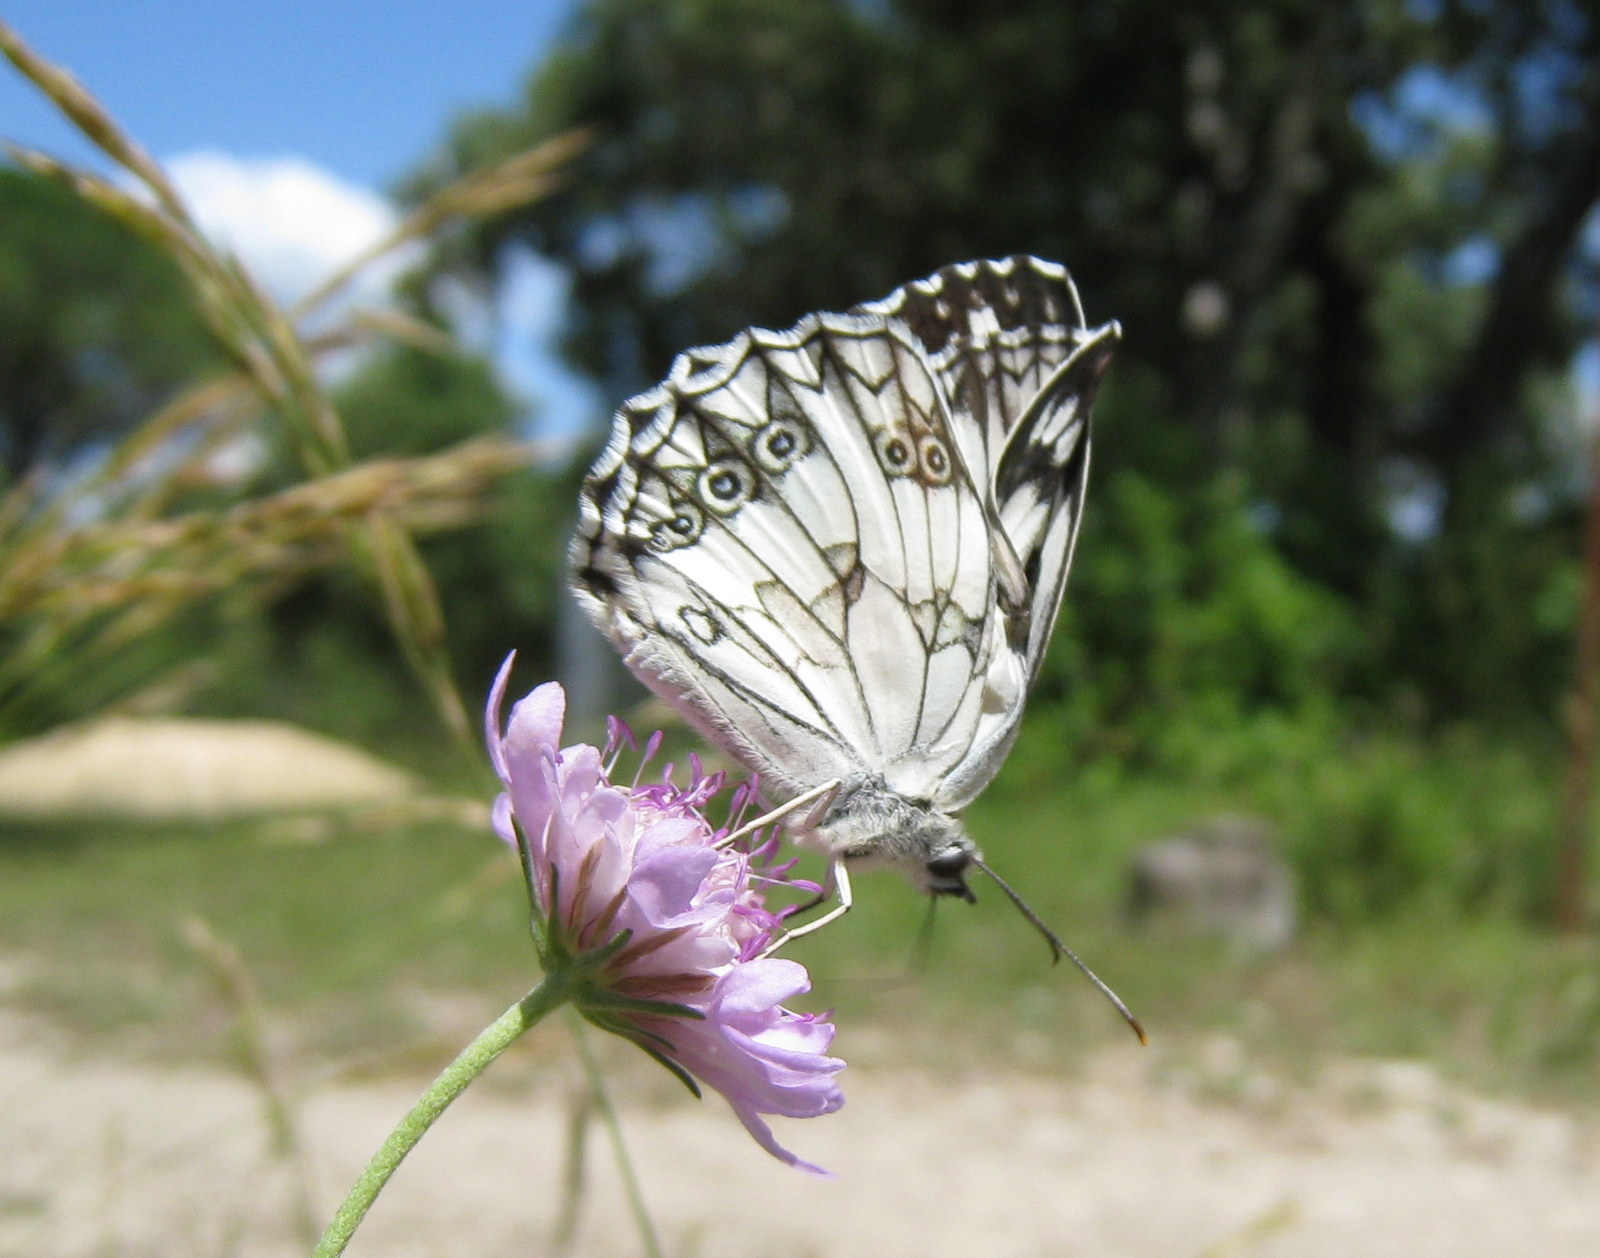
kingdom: Animalia
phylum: Arthropoda
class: Insecta
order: Lepidoptera
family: Nymphalidae
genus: Melanargia
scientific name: Melanargia lachesis
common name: Iberian marbled white
